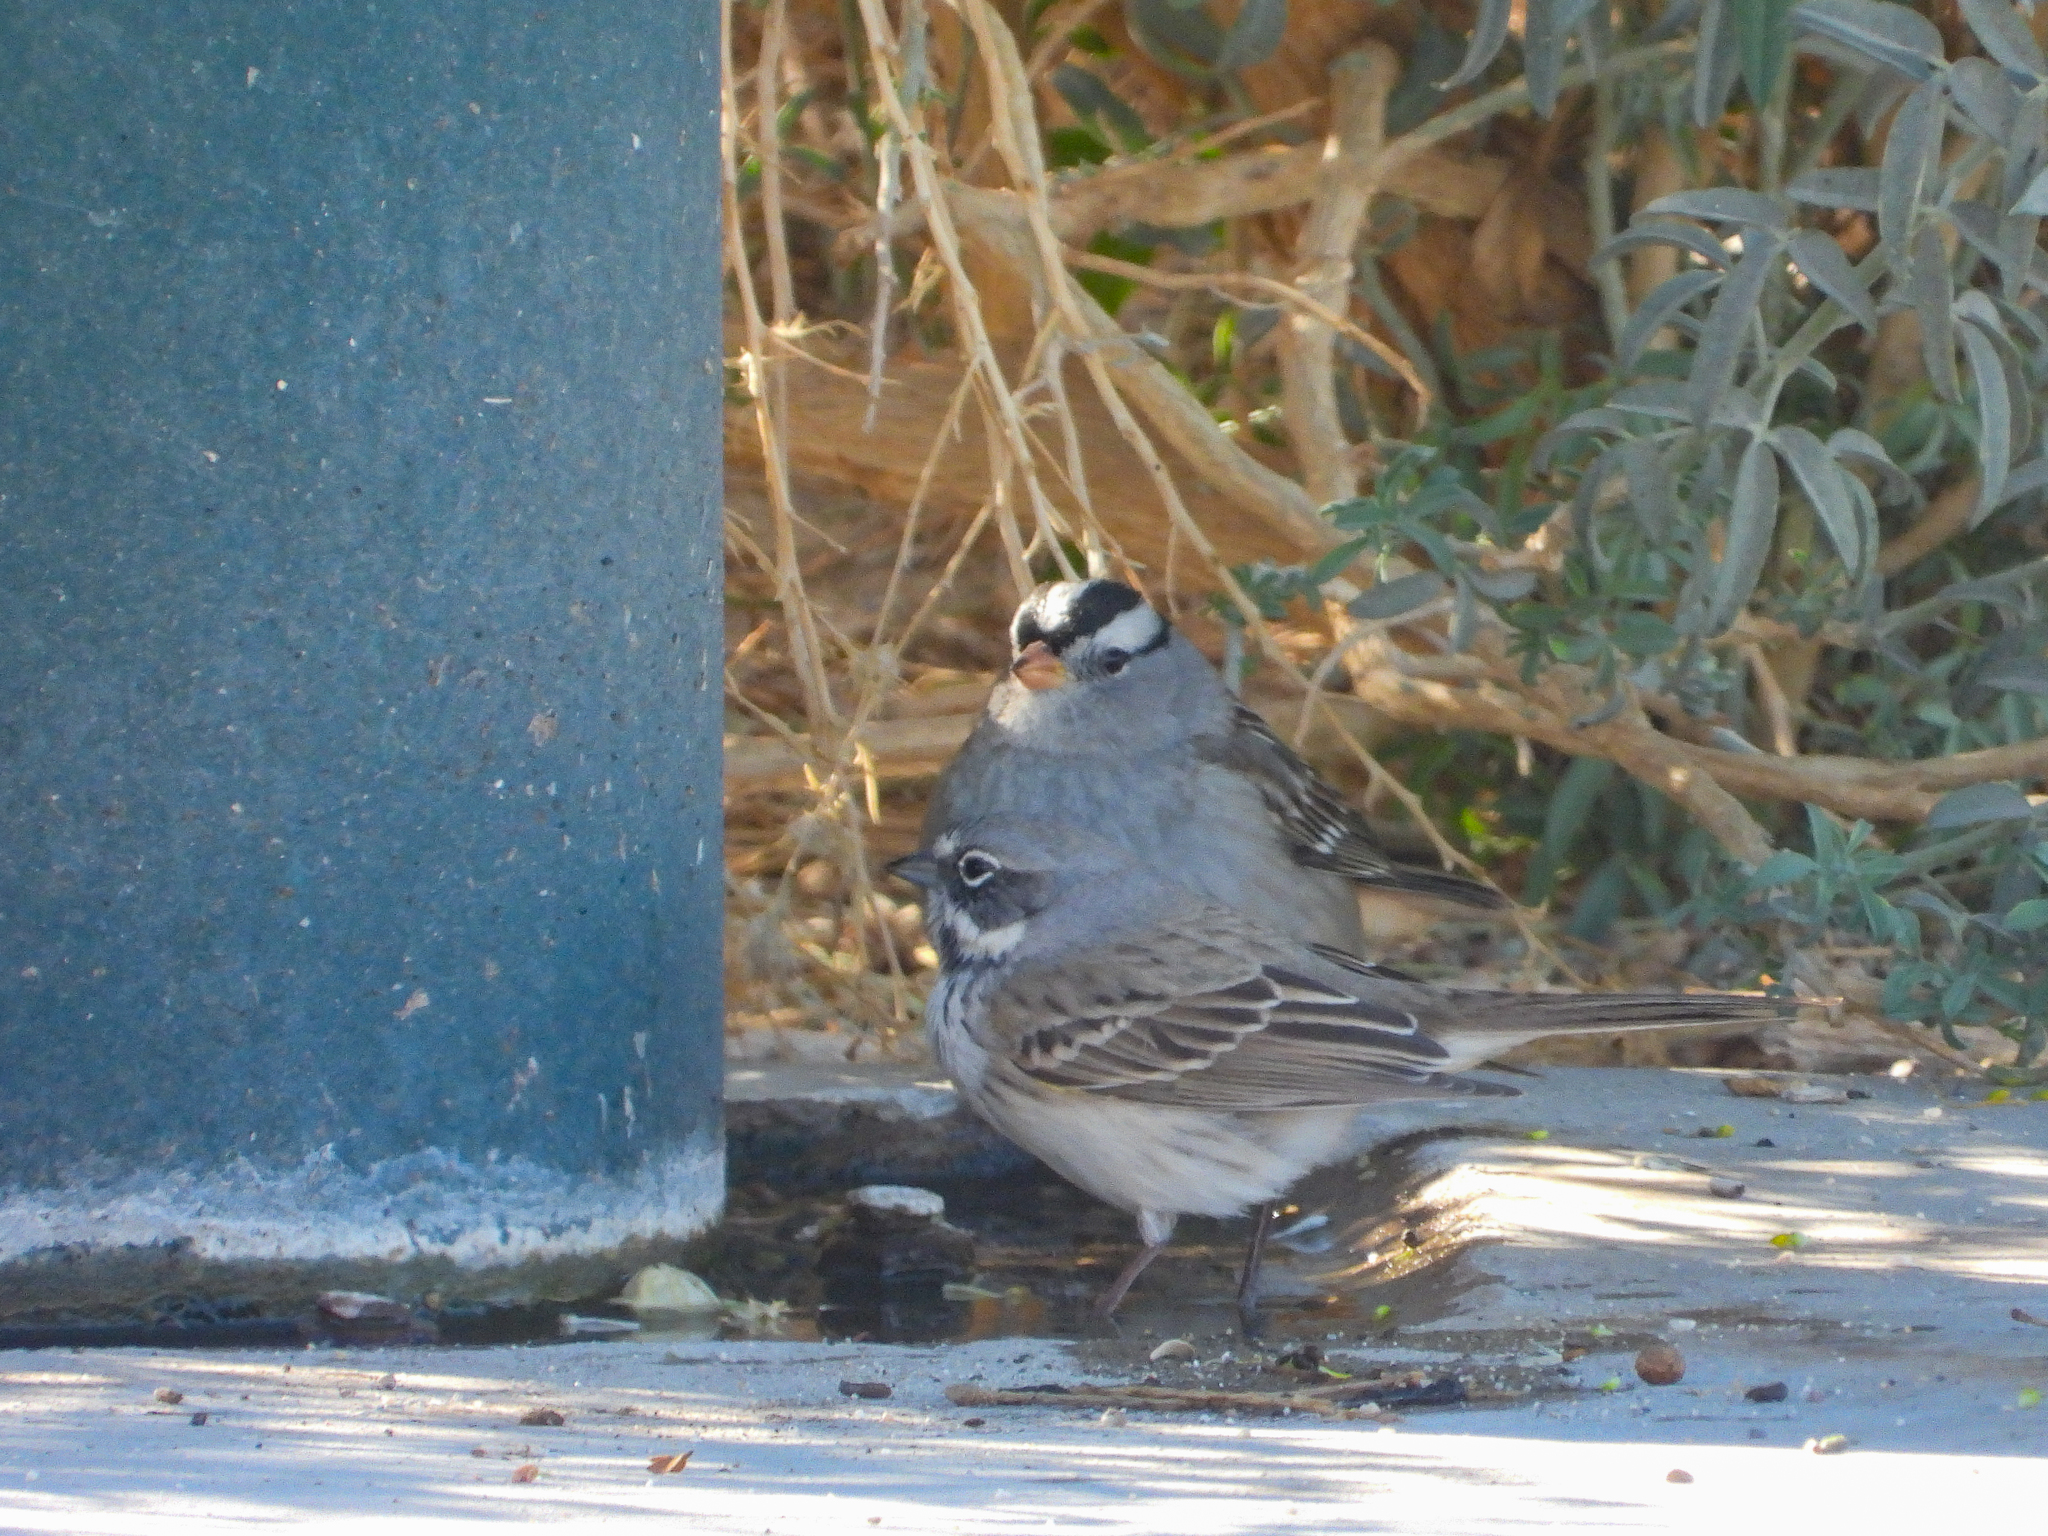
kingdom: Animalia
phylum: Chordata
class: Aves
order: Passeriformes
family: Passerellidae
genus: Artemisiospiza
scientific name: Artemisiospiza belli
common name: Bell's sparrow
